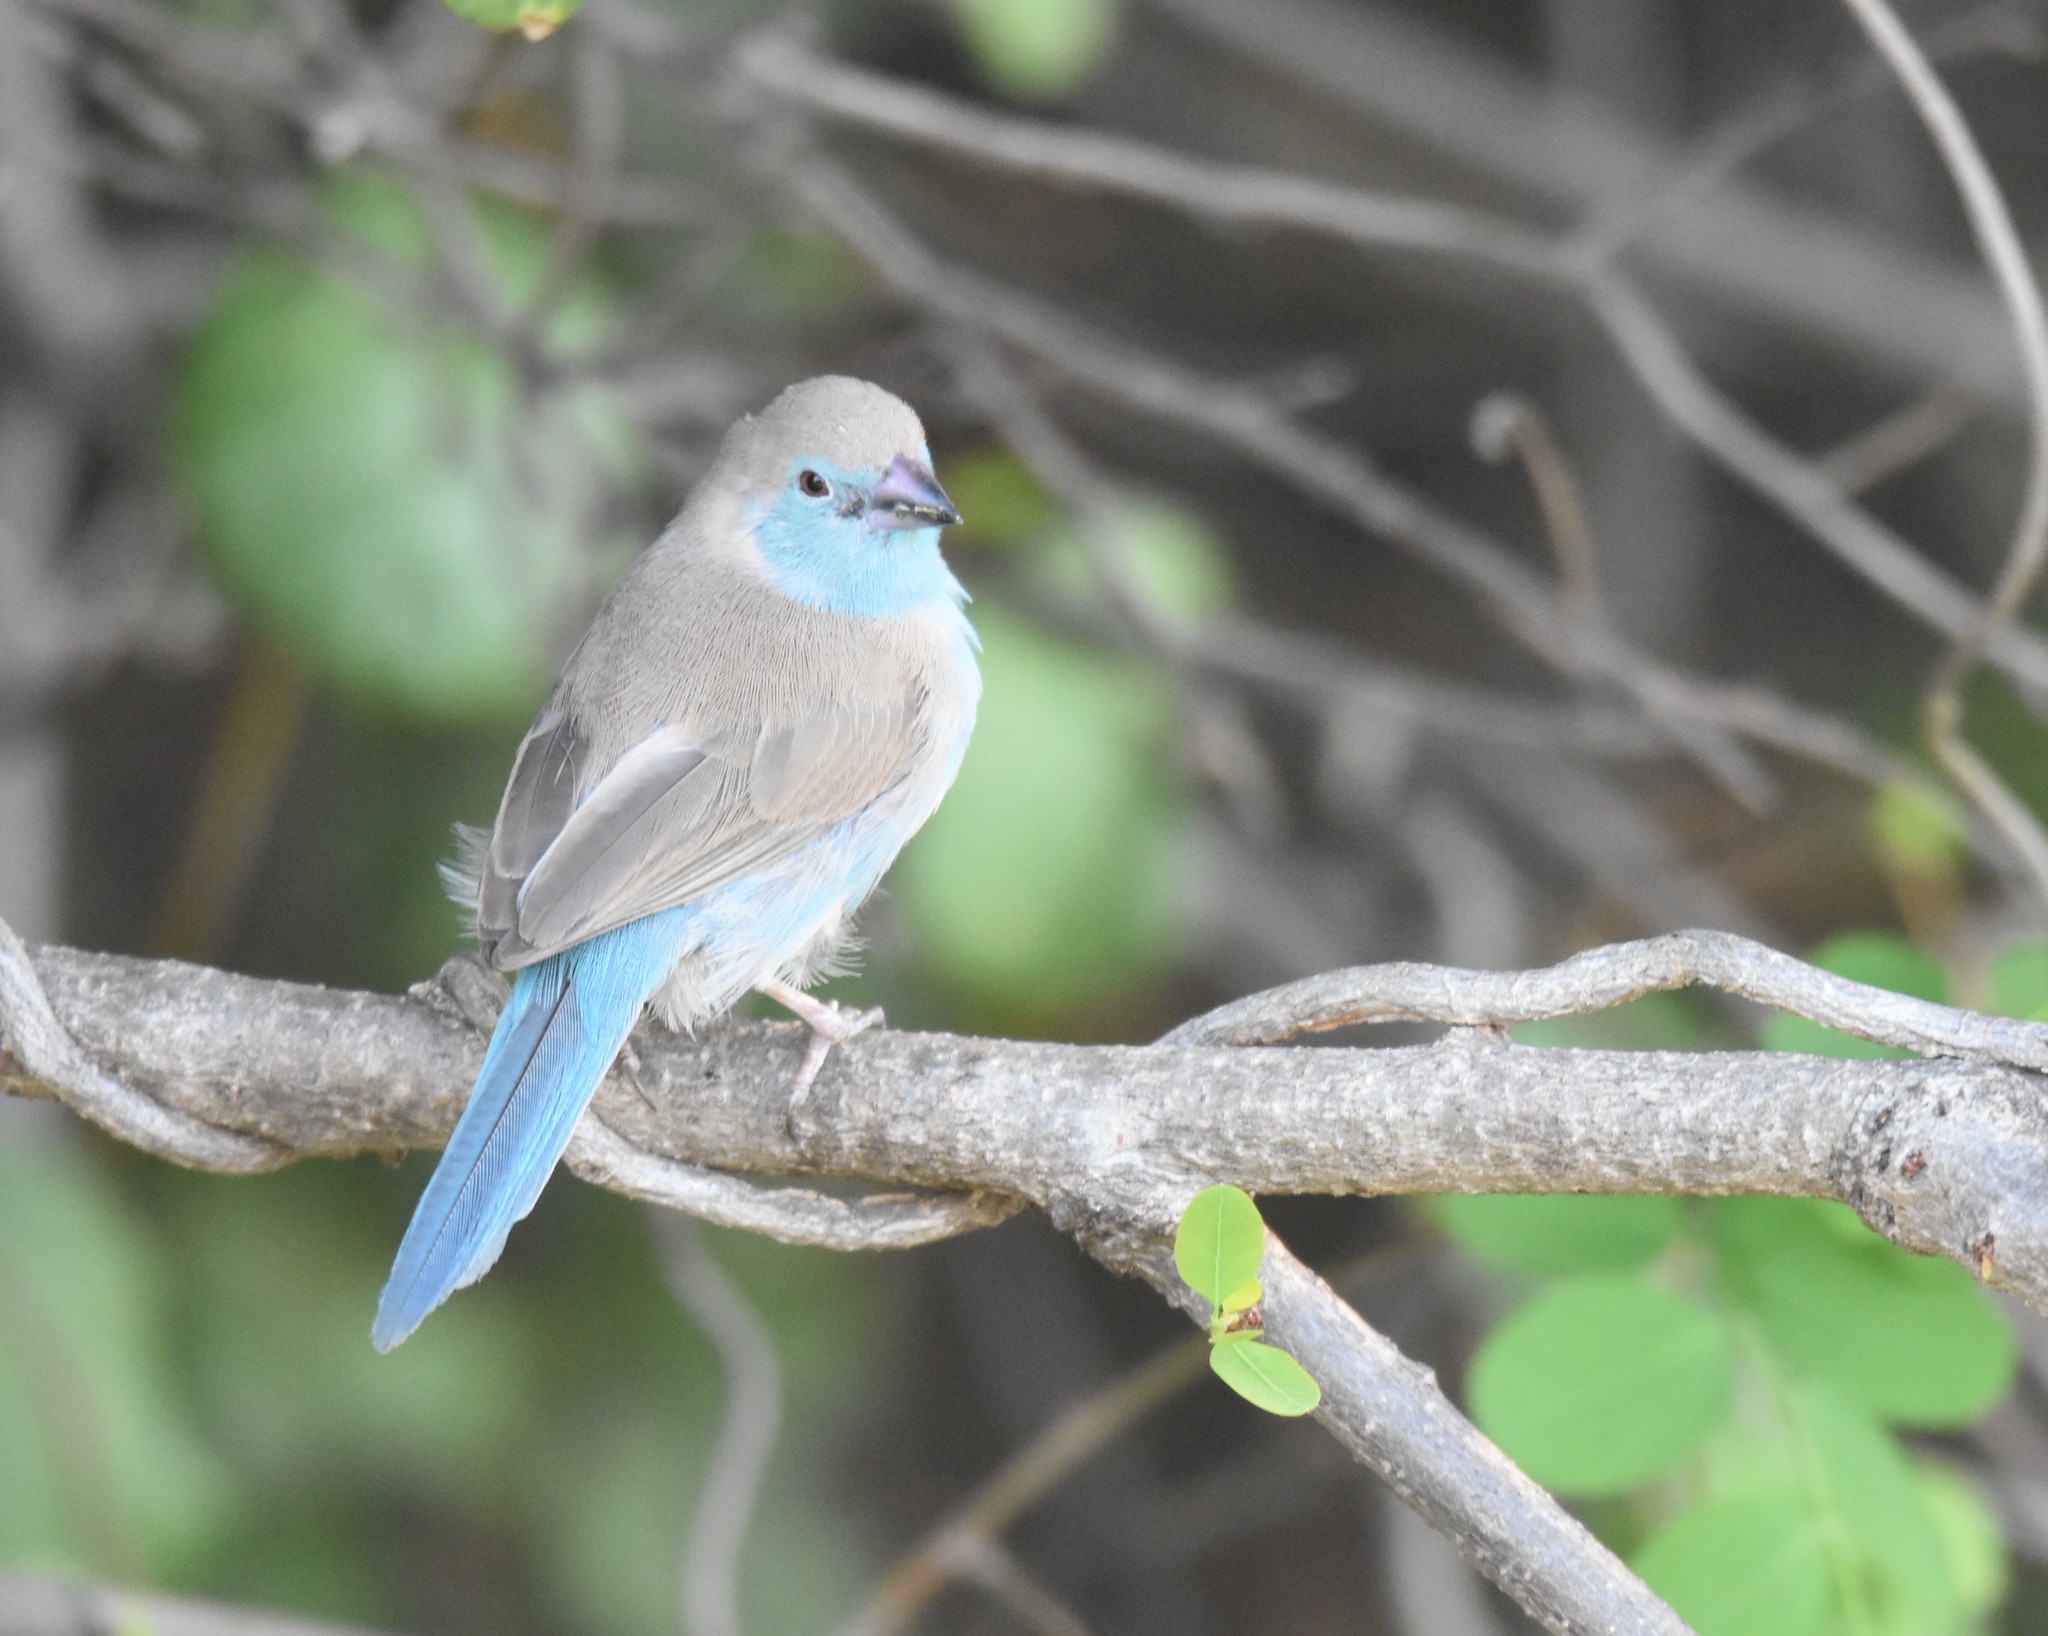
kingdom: Animalia
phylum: Chordata
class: Aves
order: Passeriformes
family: Estrildidae
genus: Uraeginthus
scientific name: Uraeginthus angolensis
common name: Blue waxbill
